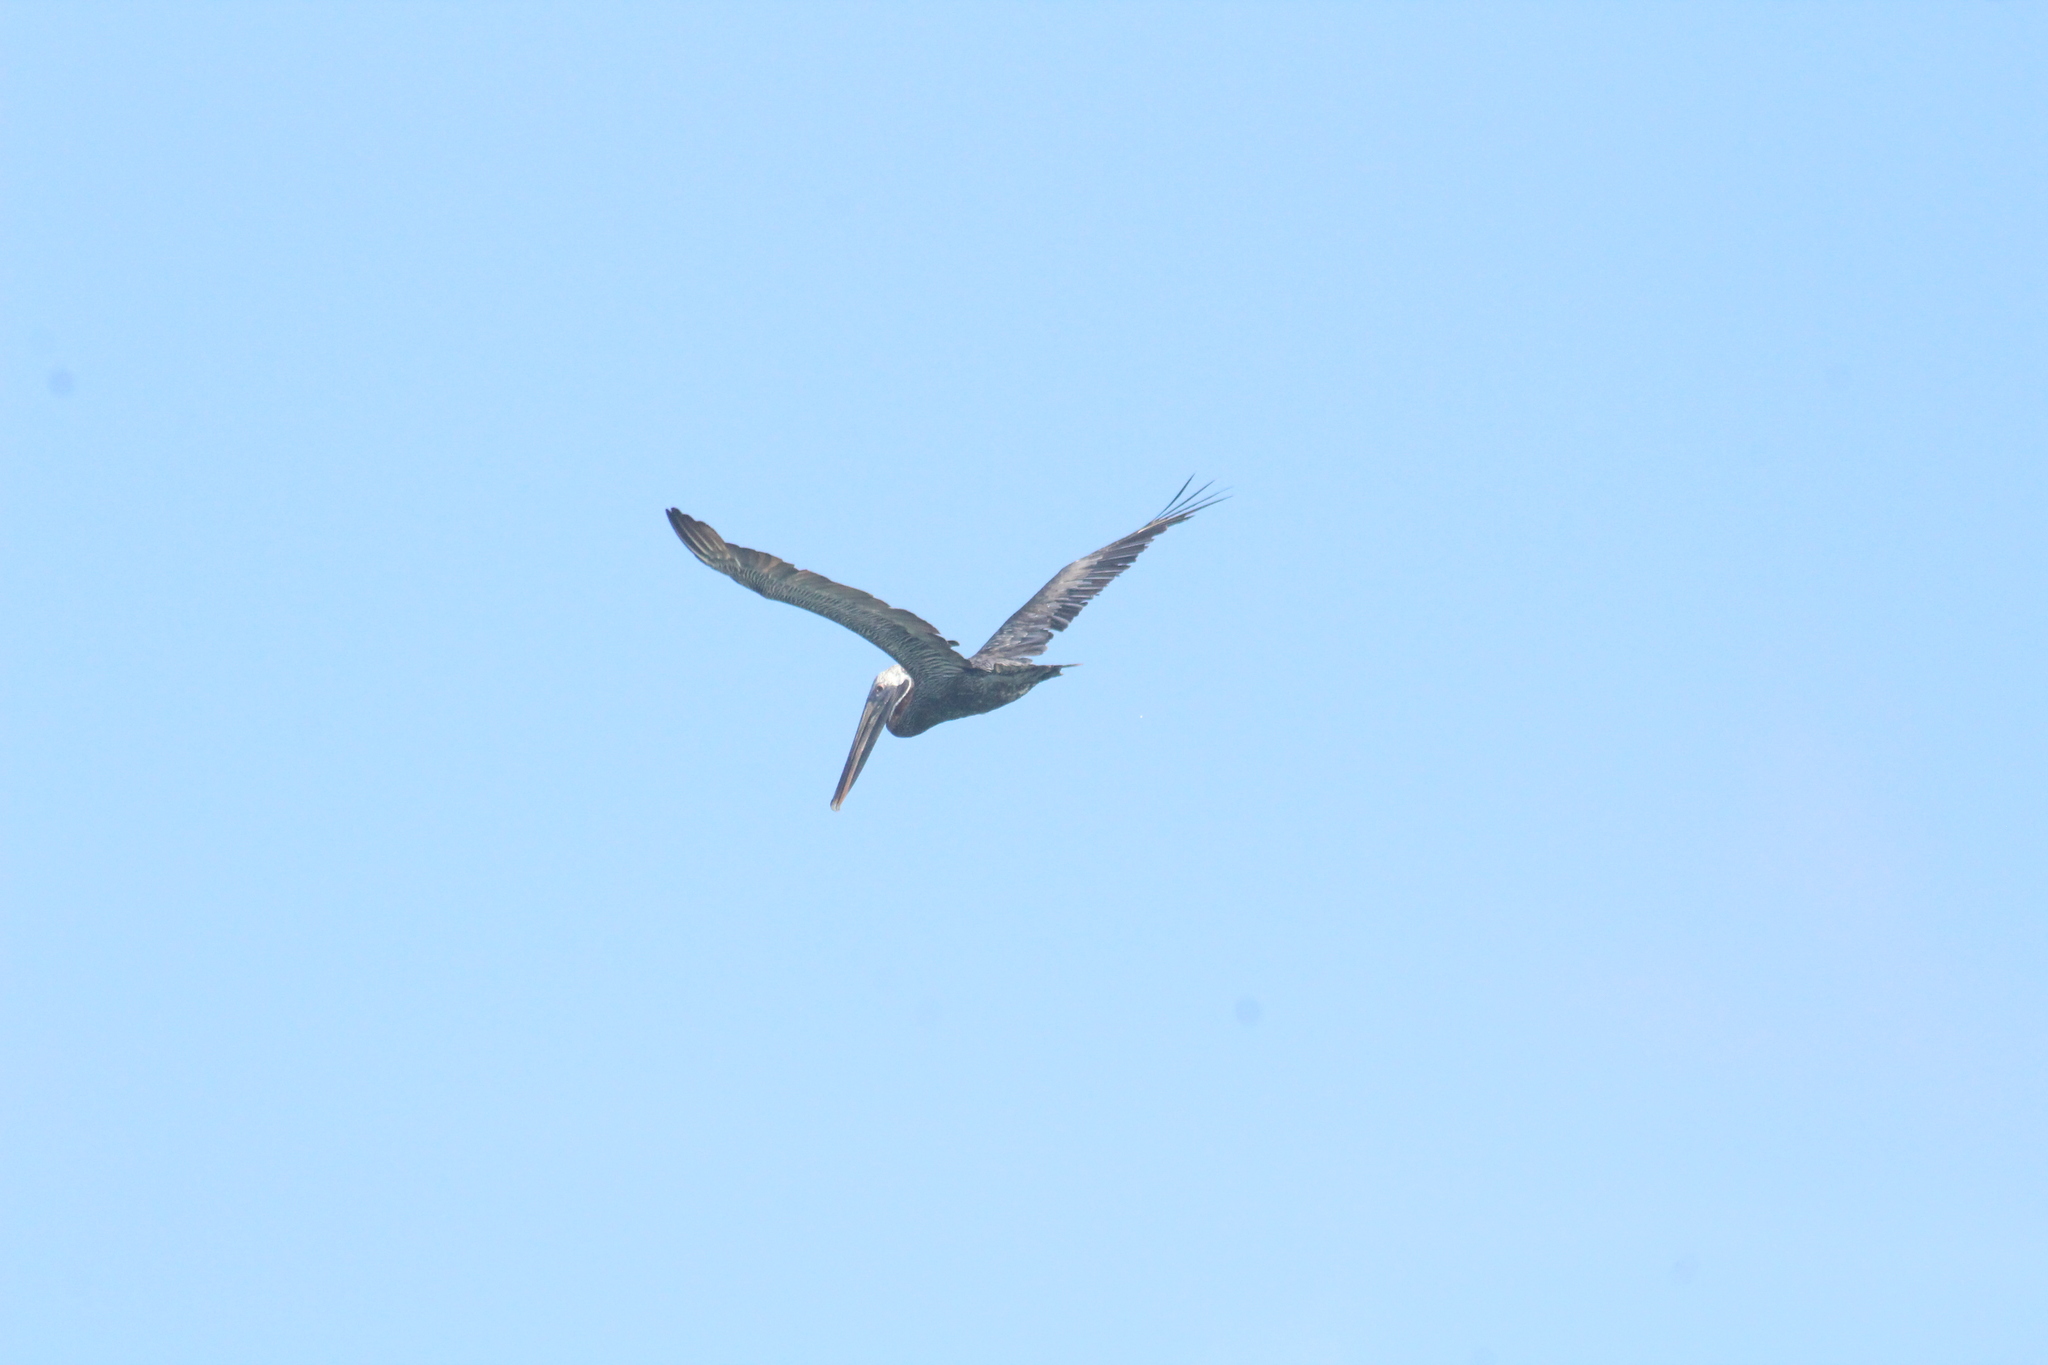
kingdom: Animalia
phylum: Chordata
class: Aves
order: Pelecaniformes
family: Pelecanidae
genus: Pelecanus
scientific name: Pelecanus occidentalis
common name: Brown pelican
